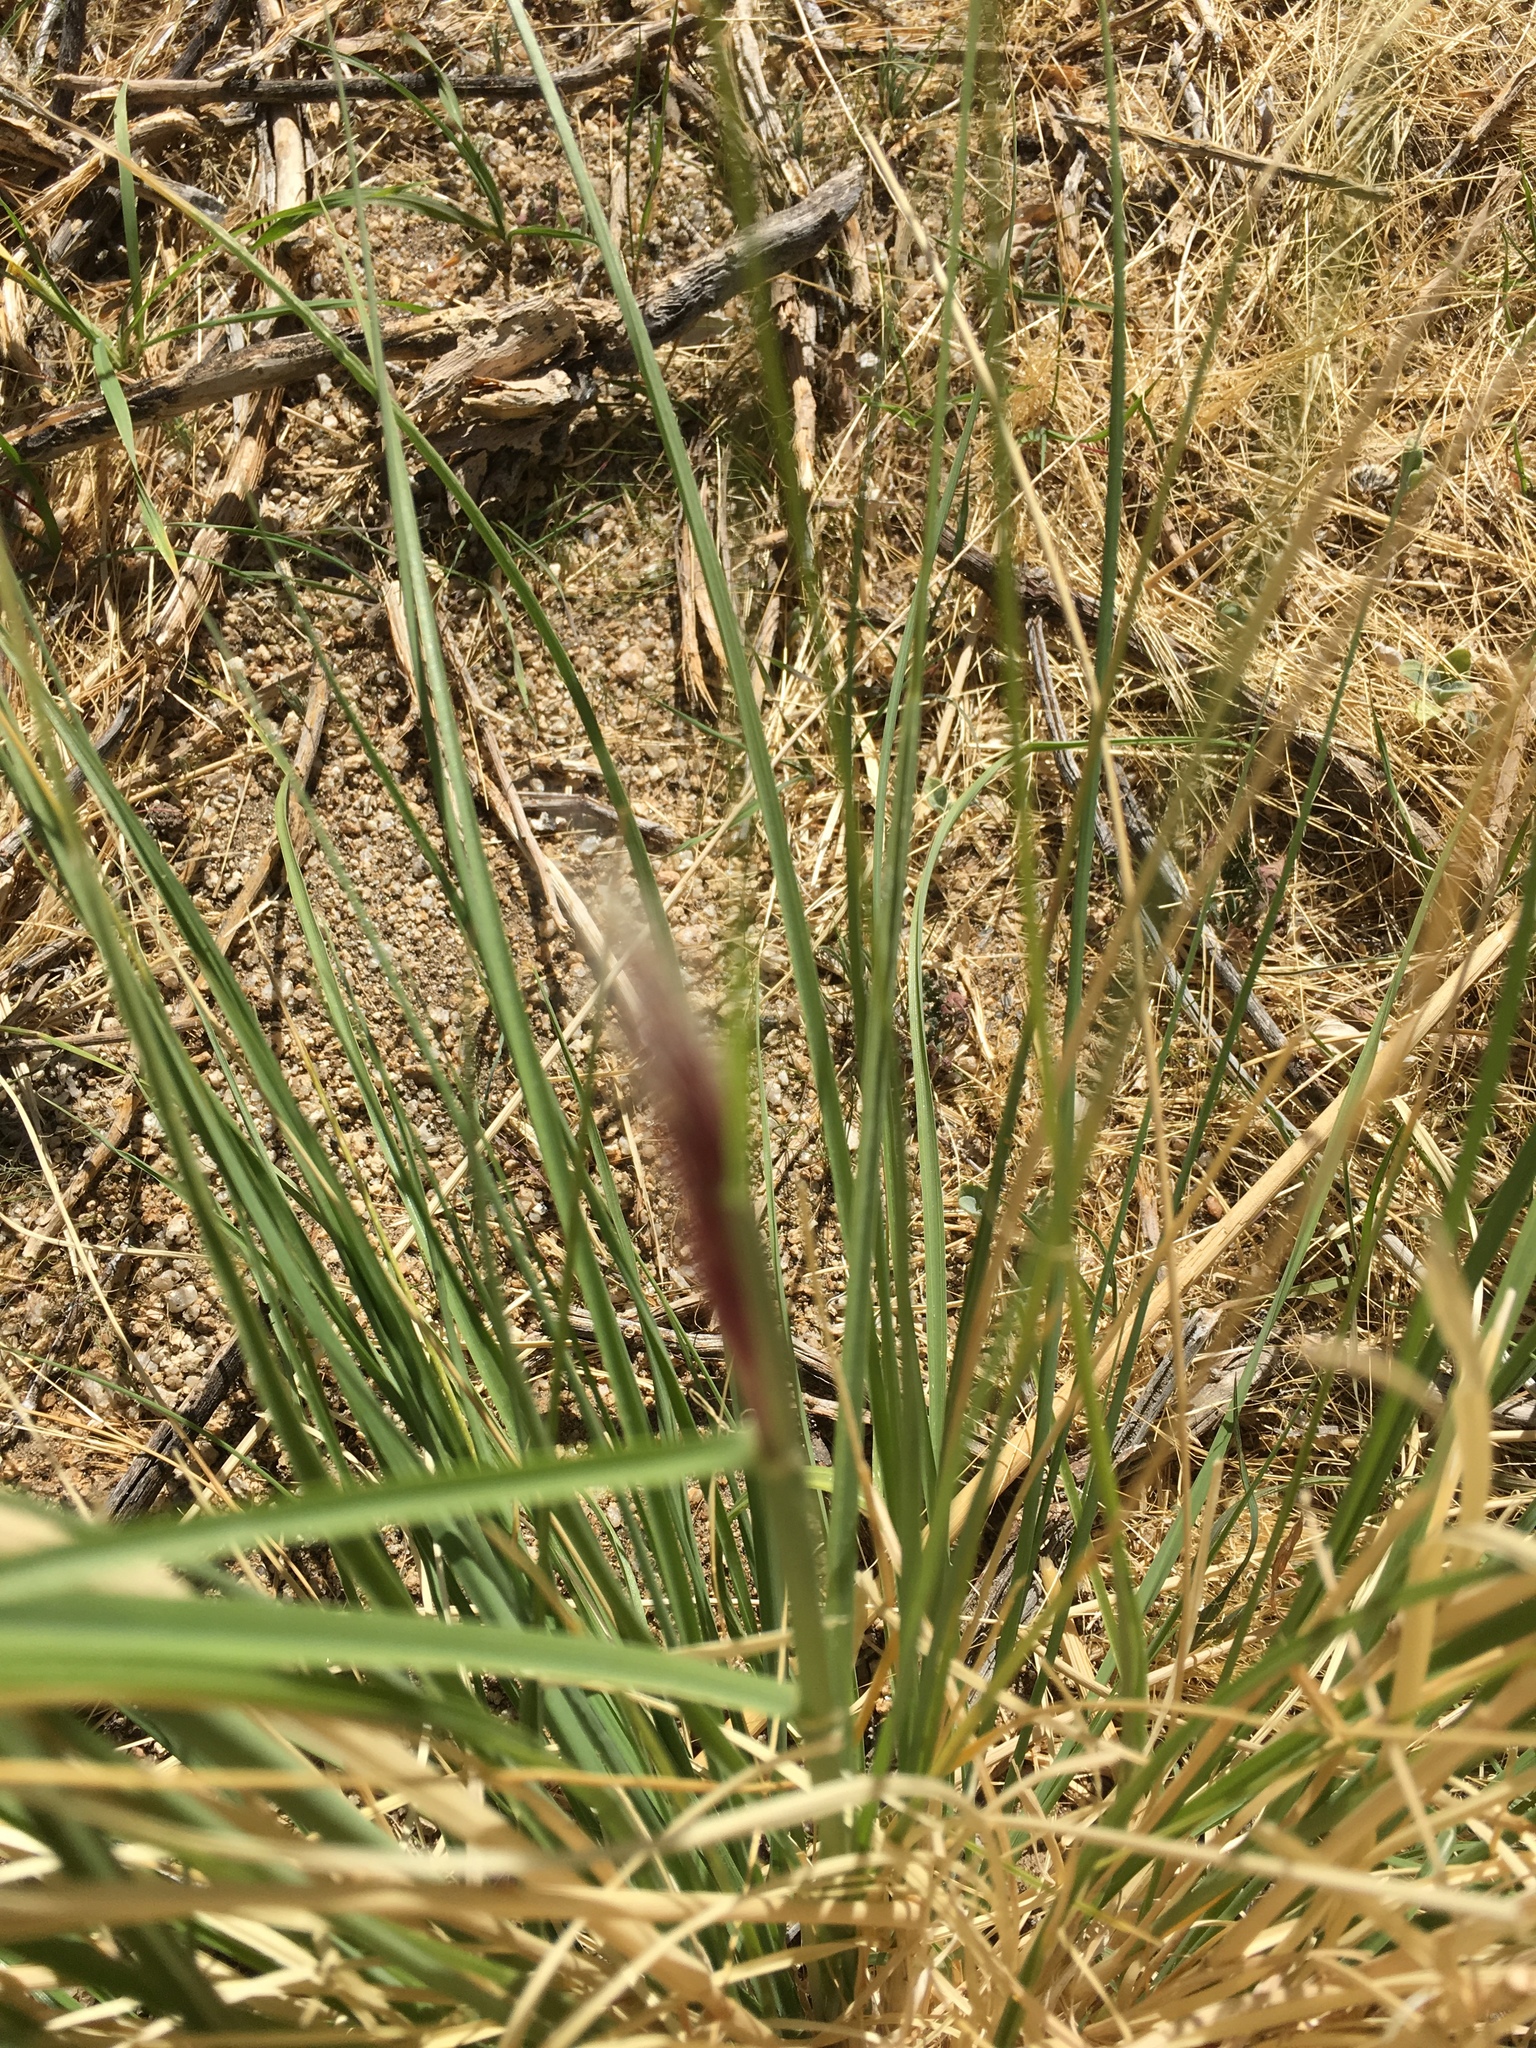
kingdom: Plantae
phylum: Tracheophyta
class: Liliopsida
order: Poales
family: Poaceae
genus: Cenchrus
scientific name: Cenchrus setaceus
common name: Crimson fountaingrass
